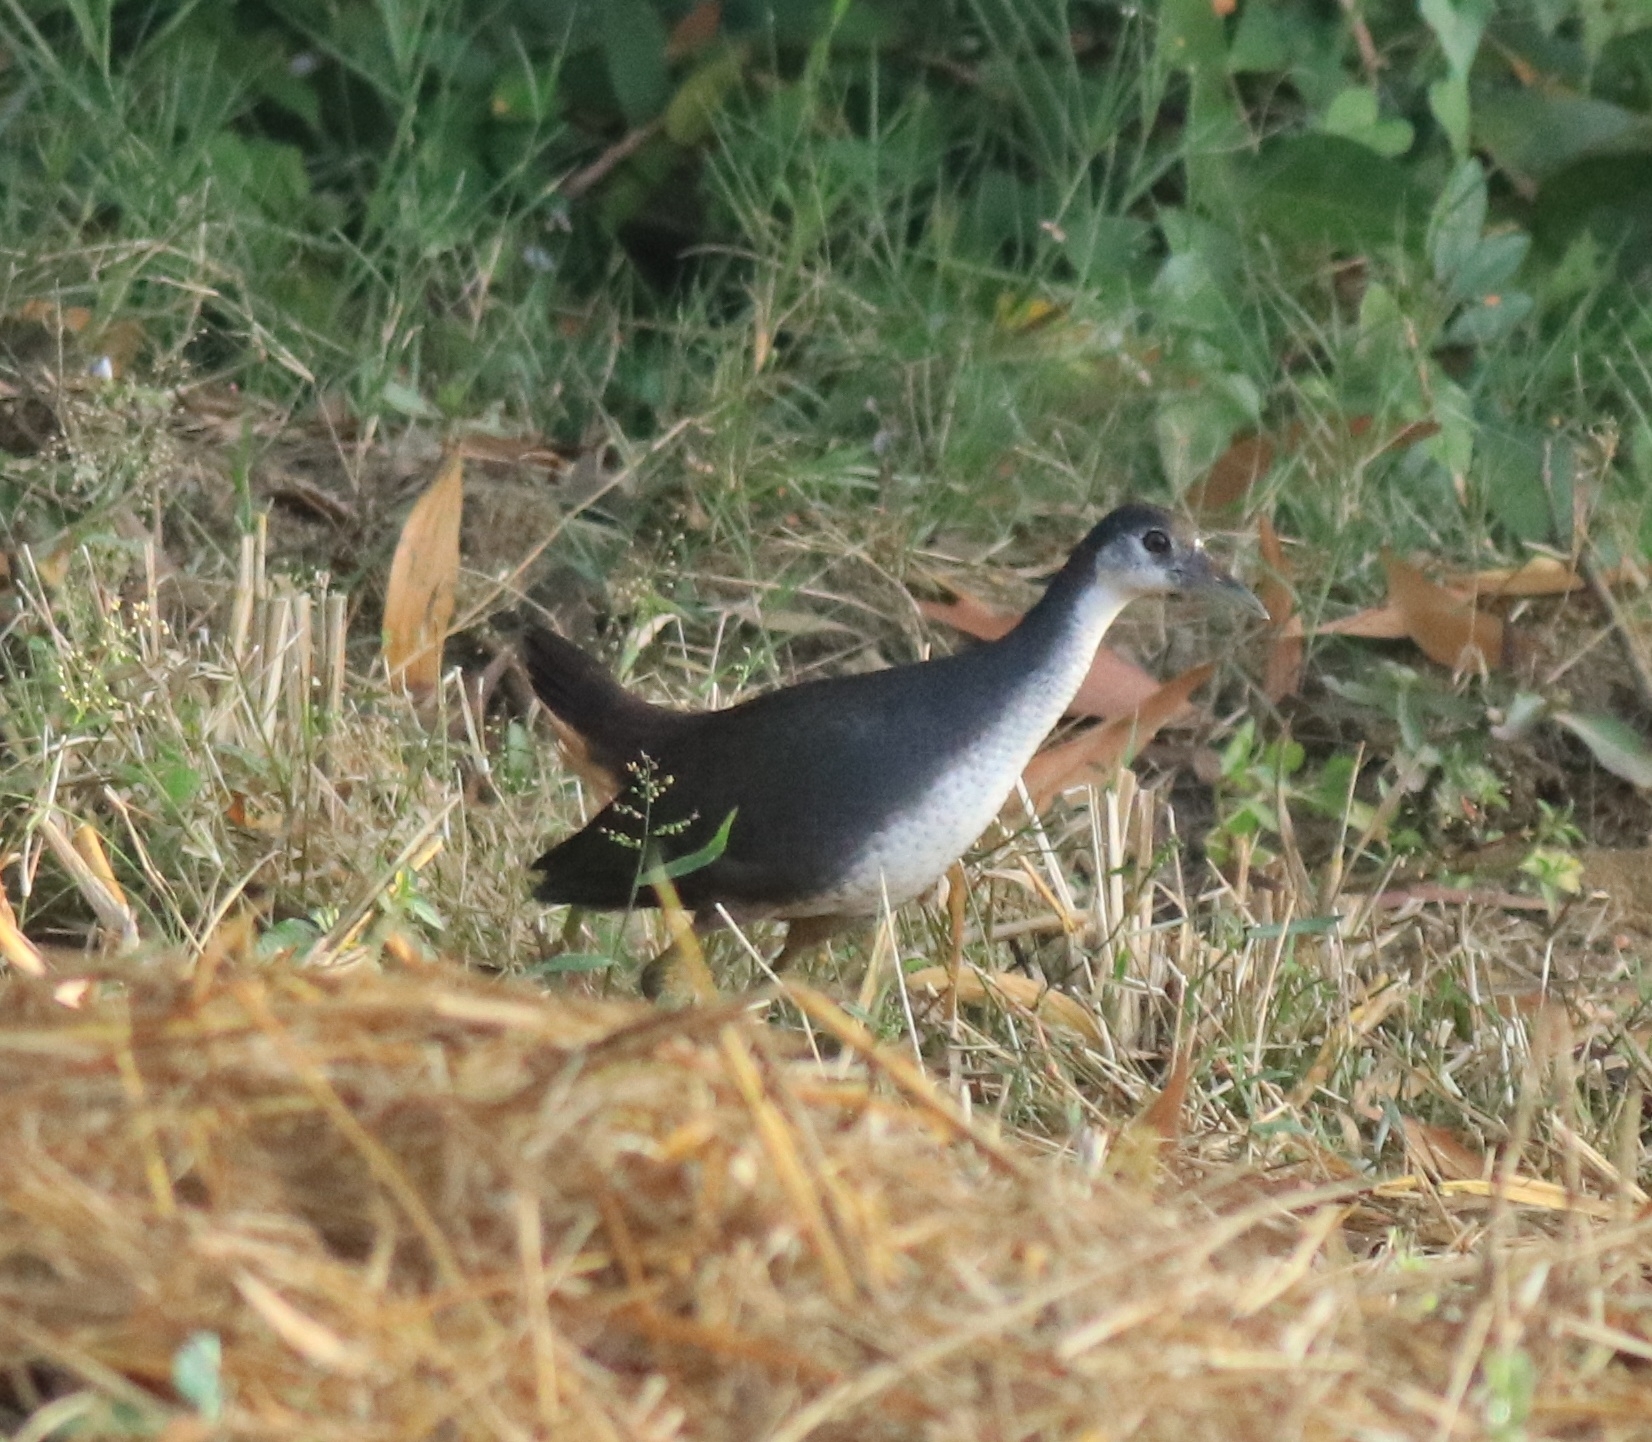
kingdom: Animalia
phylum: Chordata
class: Aves
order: Gruiformes
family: Rallidae
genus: Amaurornis
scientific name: Amaurornis phoenicurus
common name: White-breasted waterhen
